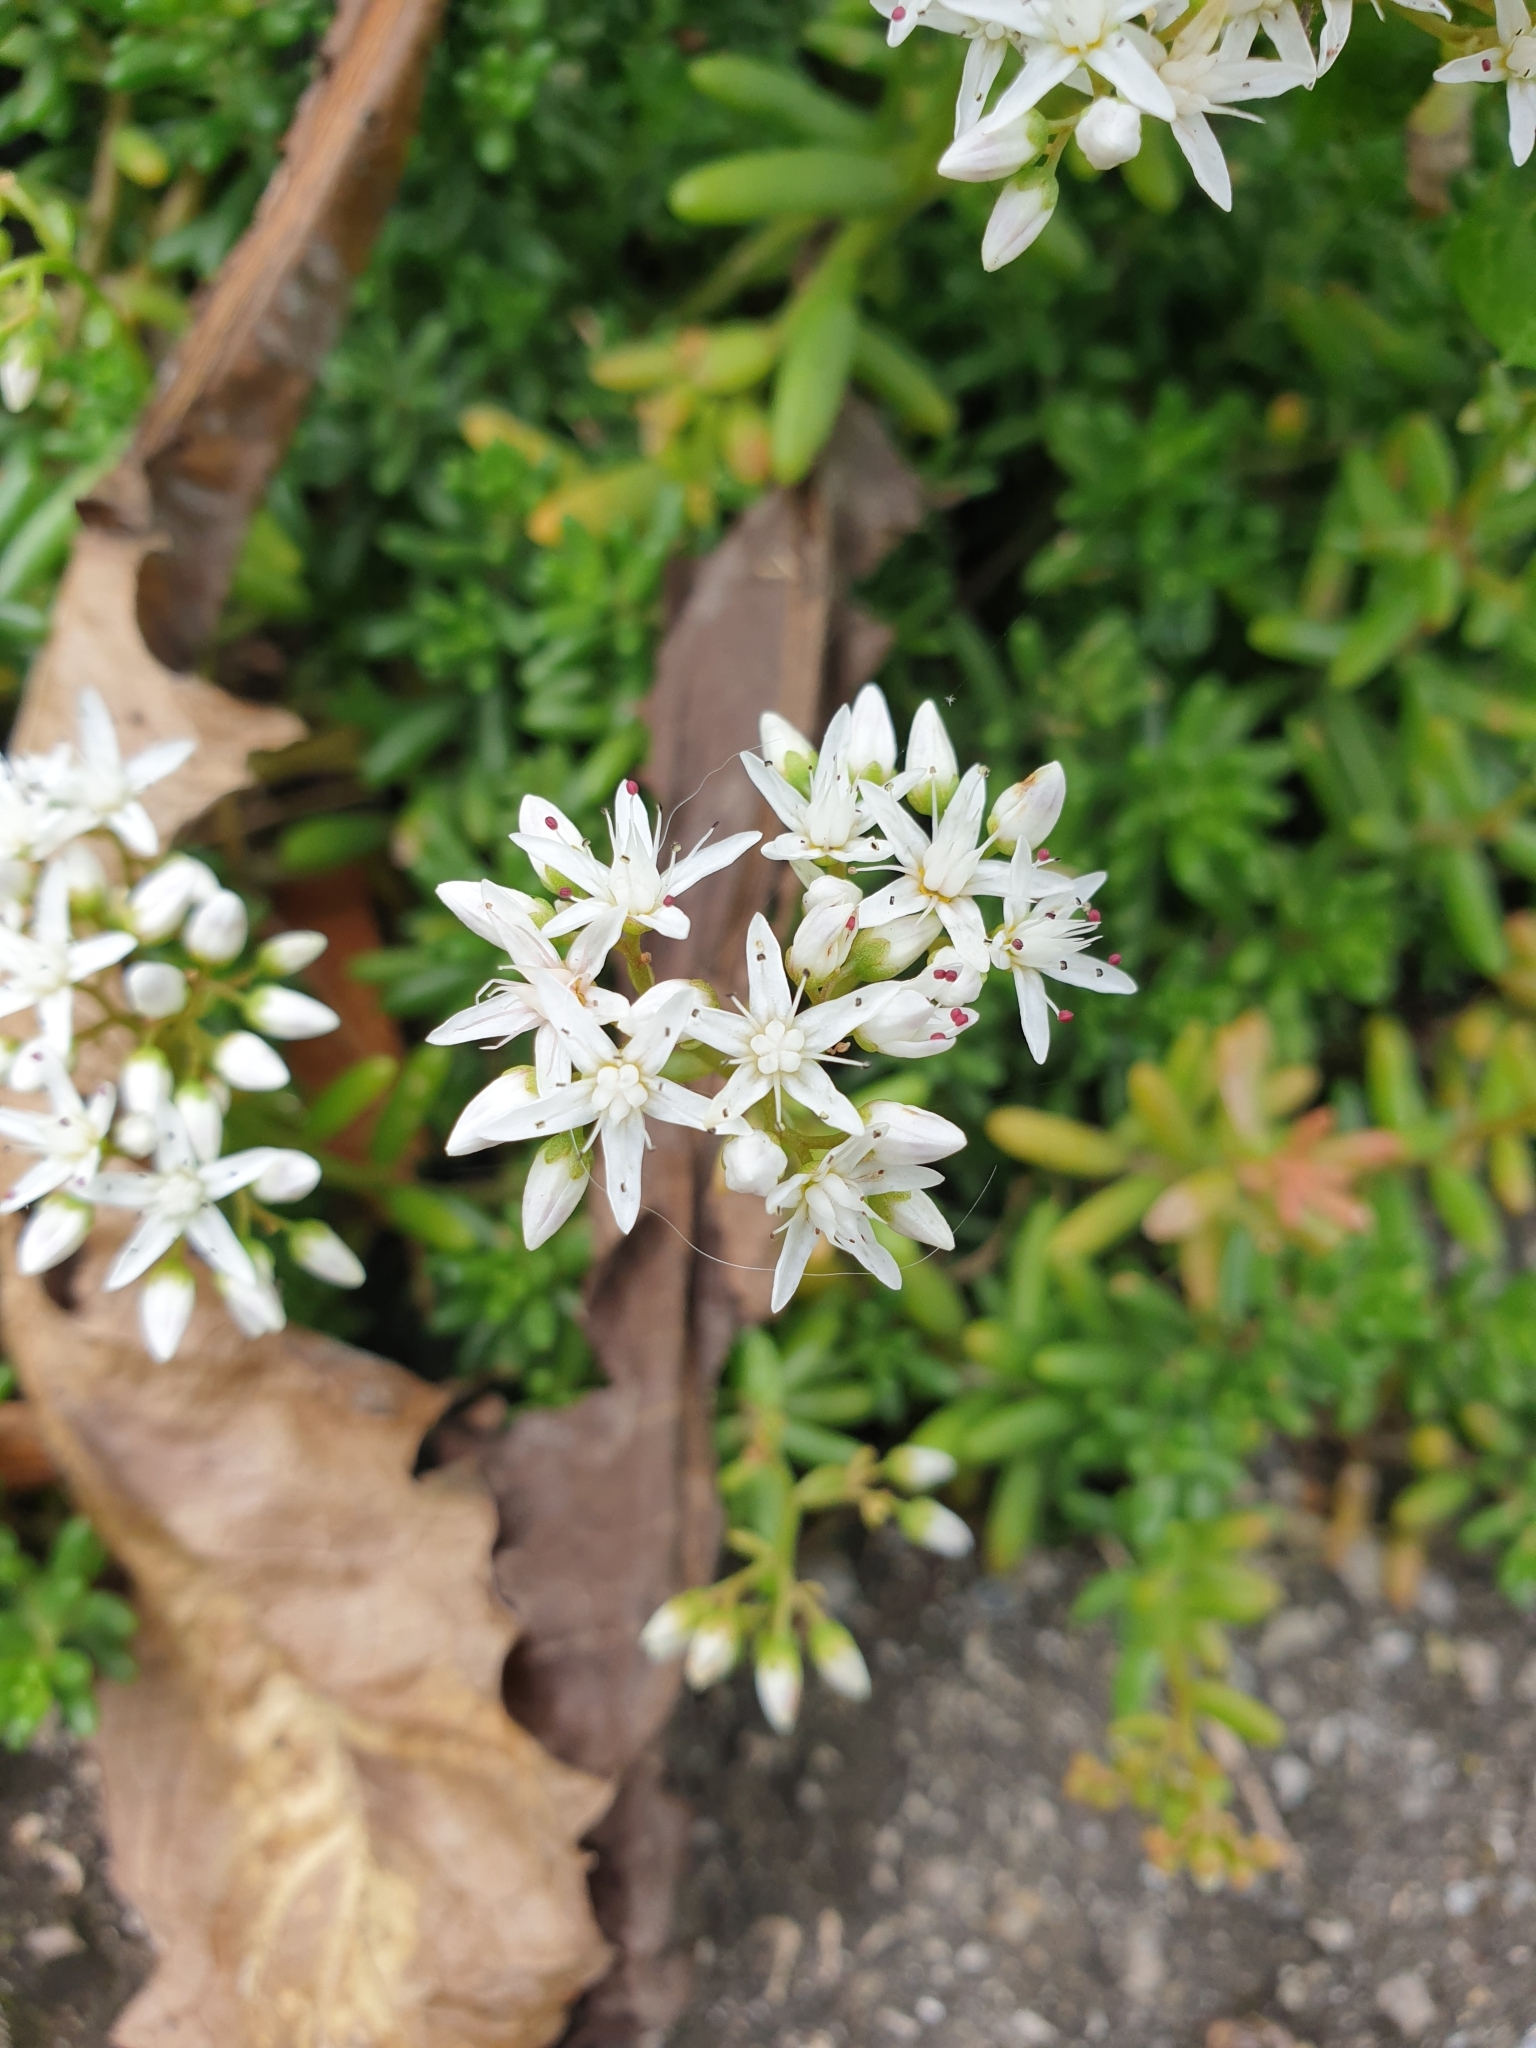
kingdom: Plantae
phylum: Tracheophyta
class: Magnoliopsida
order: Saxifragales
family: Crassulaceae
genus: Sedum
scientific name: Sedum album
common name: White stonecrop
